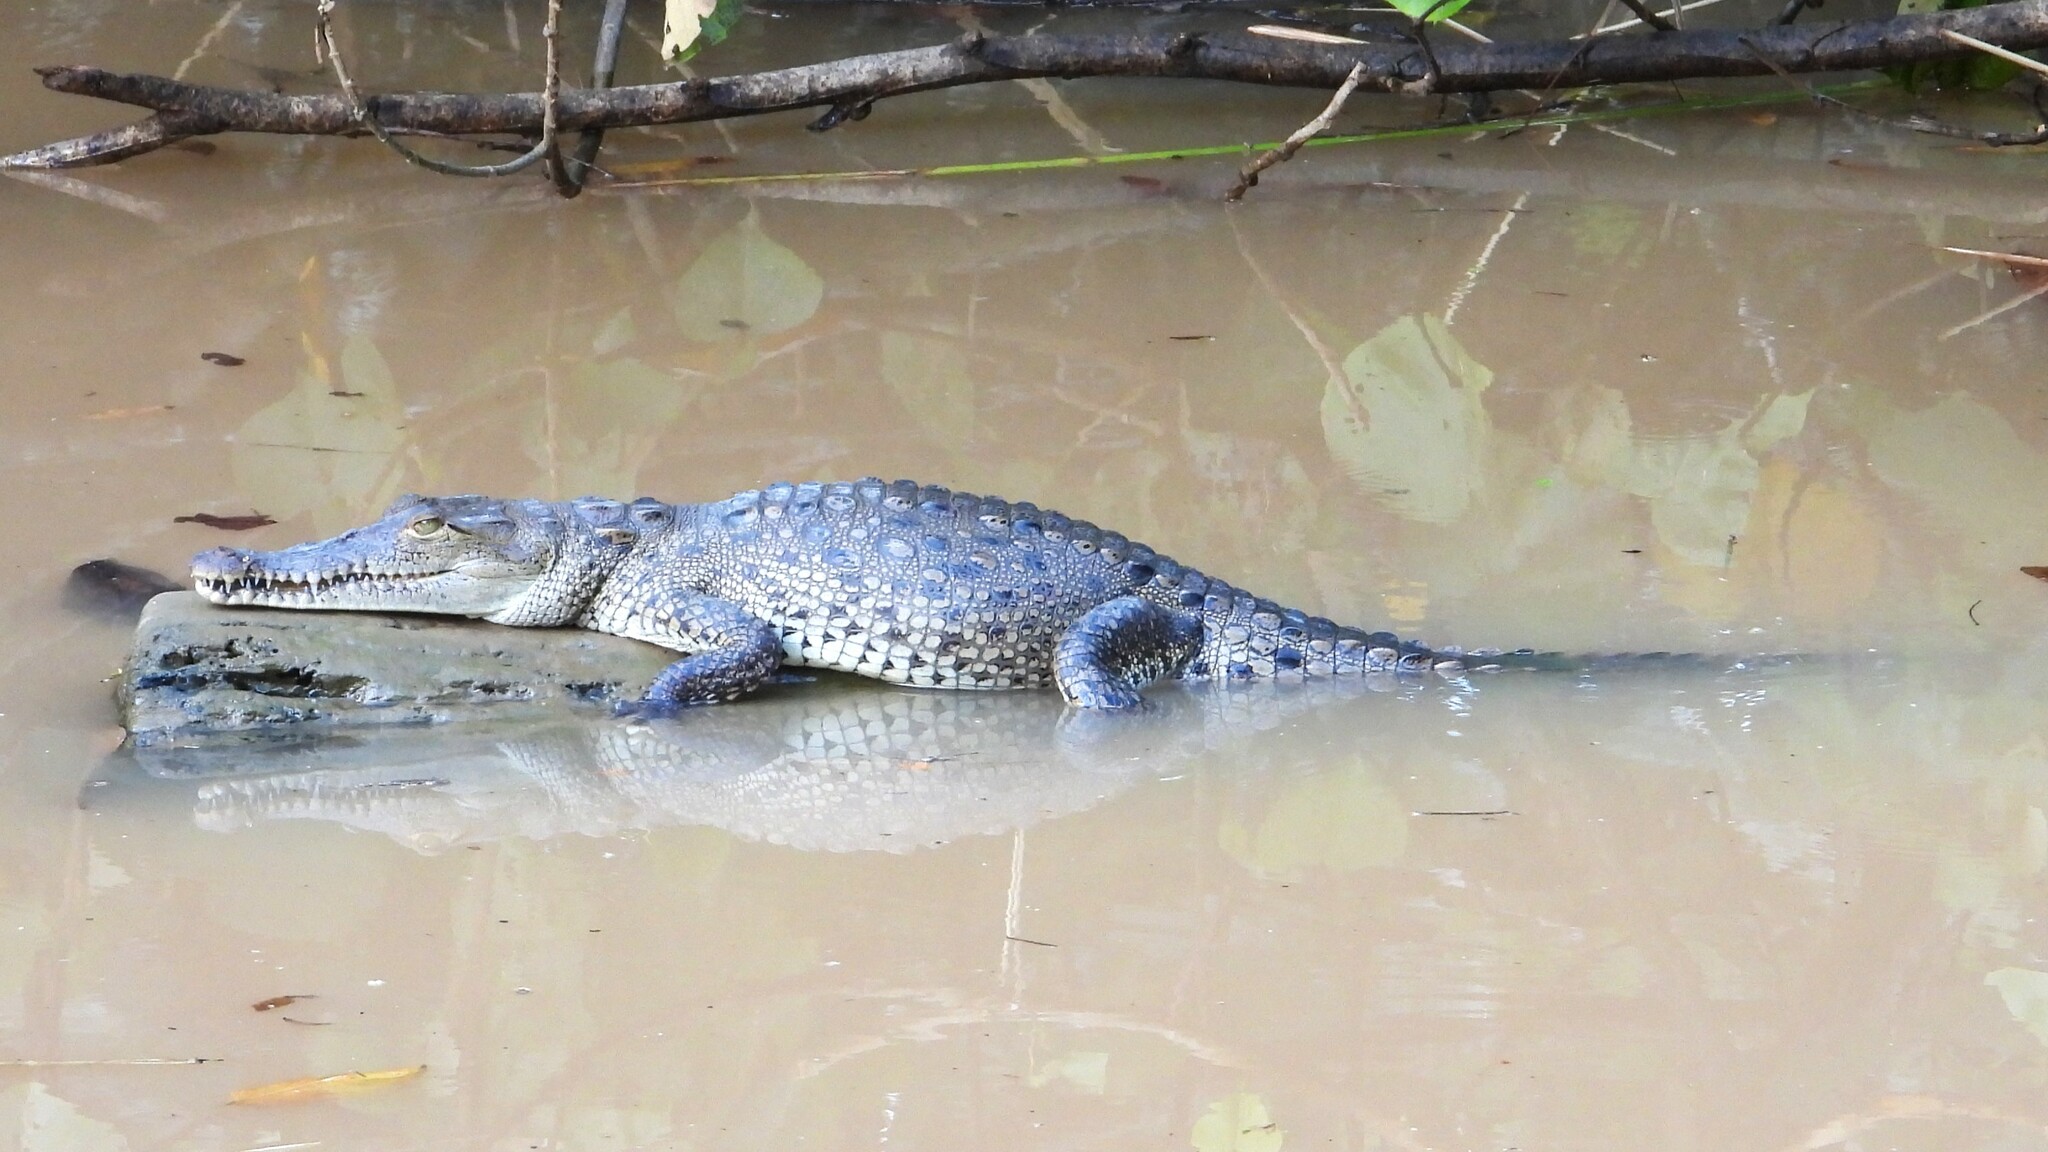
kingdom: Animalia
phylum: Chordata
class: Crocodylia
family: Crocodylidae
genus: Crocodylus
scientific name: Crocodylus acutus
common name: American crocodile
